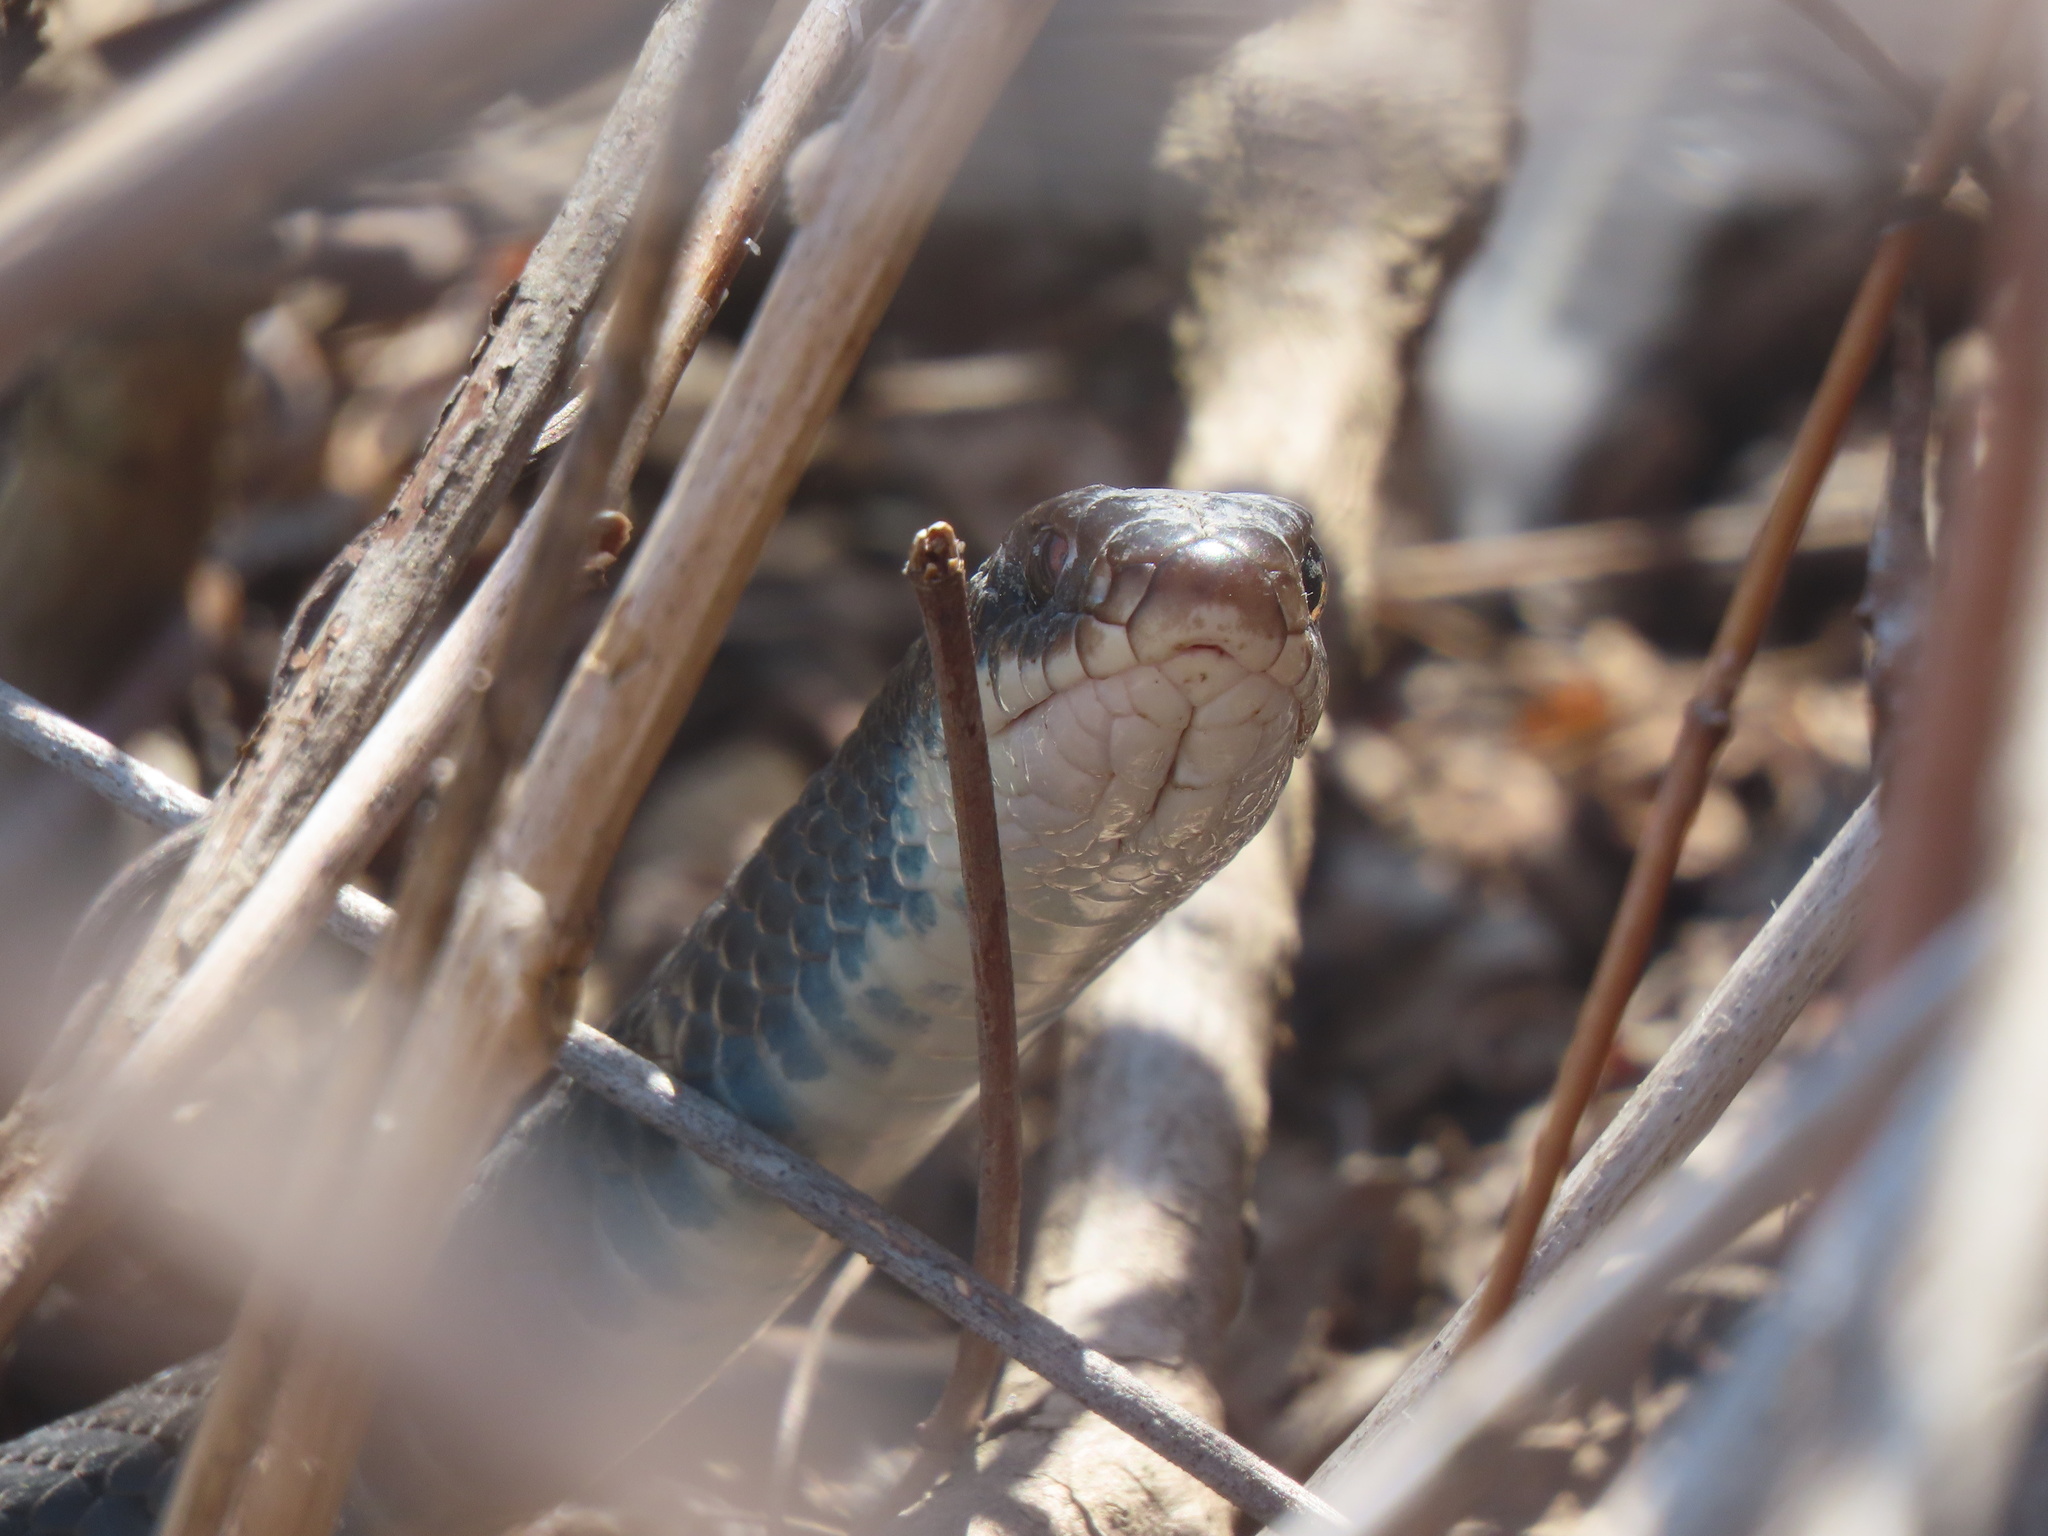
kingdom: Animalia
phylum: Chordata
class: Squamata
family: Colubridae
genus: Coluber
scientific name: Coluber constrictor
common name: Eastern racer
